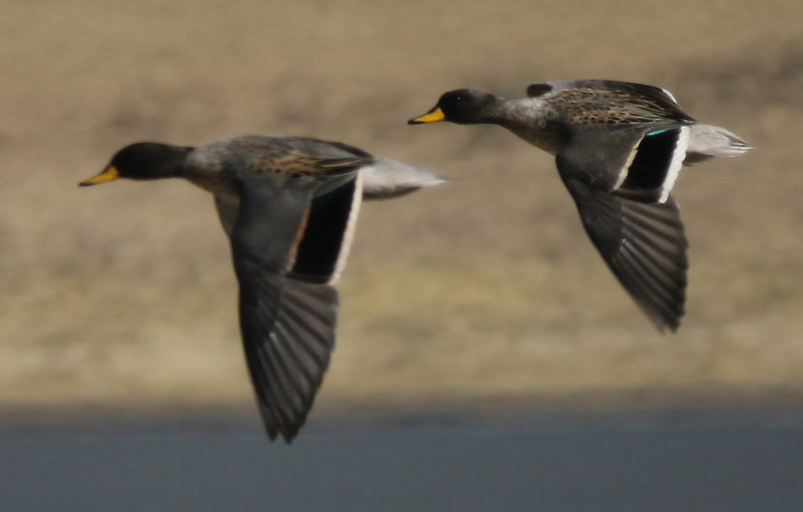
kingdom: Animalia
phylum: Chordata
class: Aves
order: Anseriformes
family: Anatidae
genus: Anas
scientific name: Anas flavirostris
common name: Yellow-billed teal
